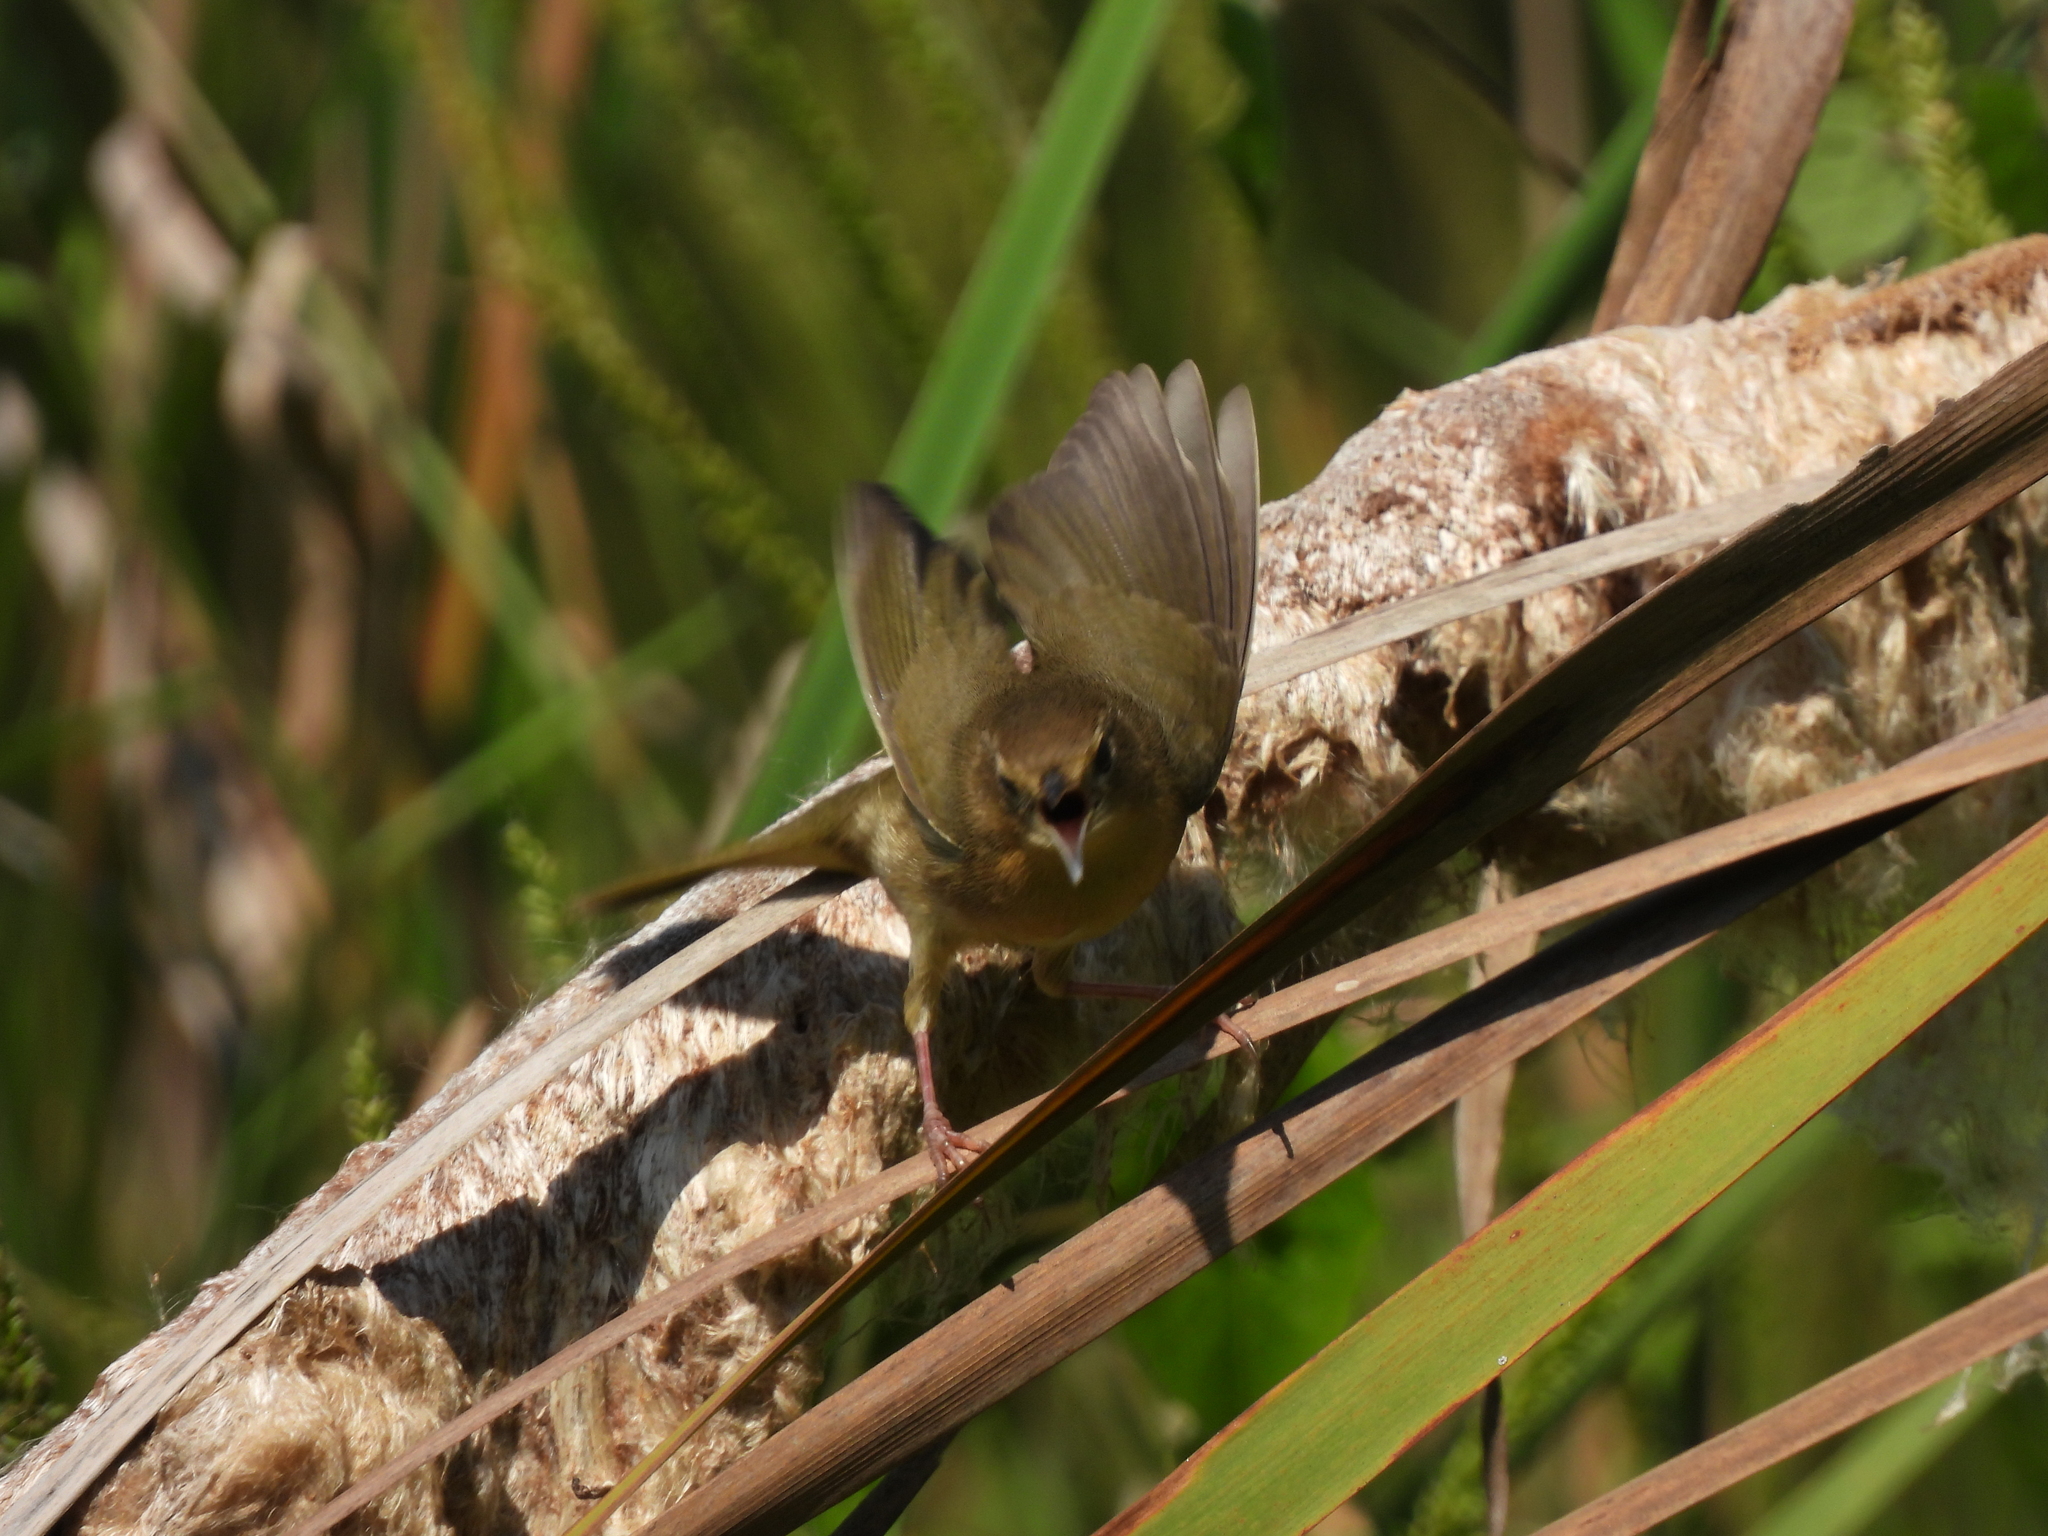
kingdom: Animalia
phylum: Chordata
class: Aves
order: Passeriformes
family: Parulidae
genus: Geothlypis
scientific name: Geothlypis trichas
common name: Common yellowthroat
